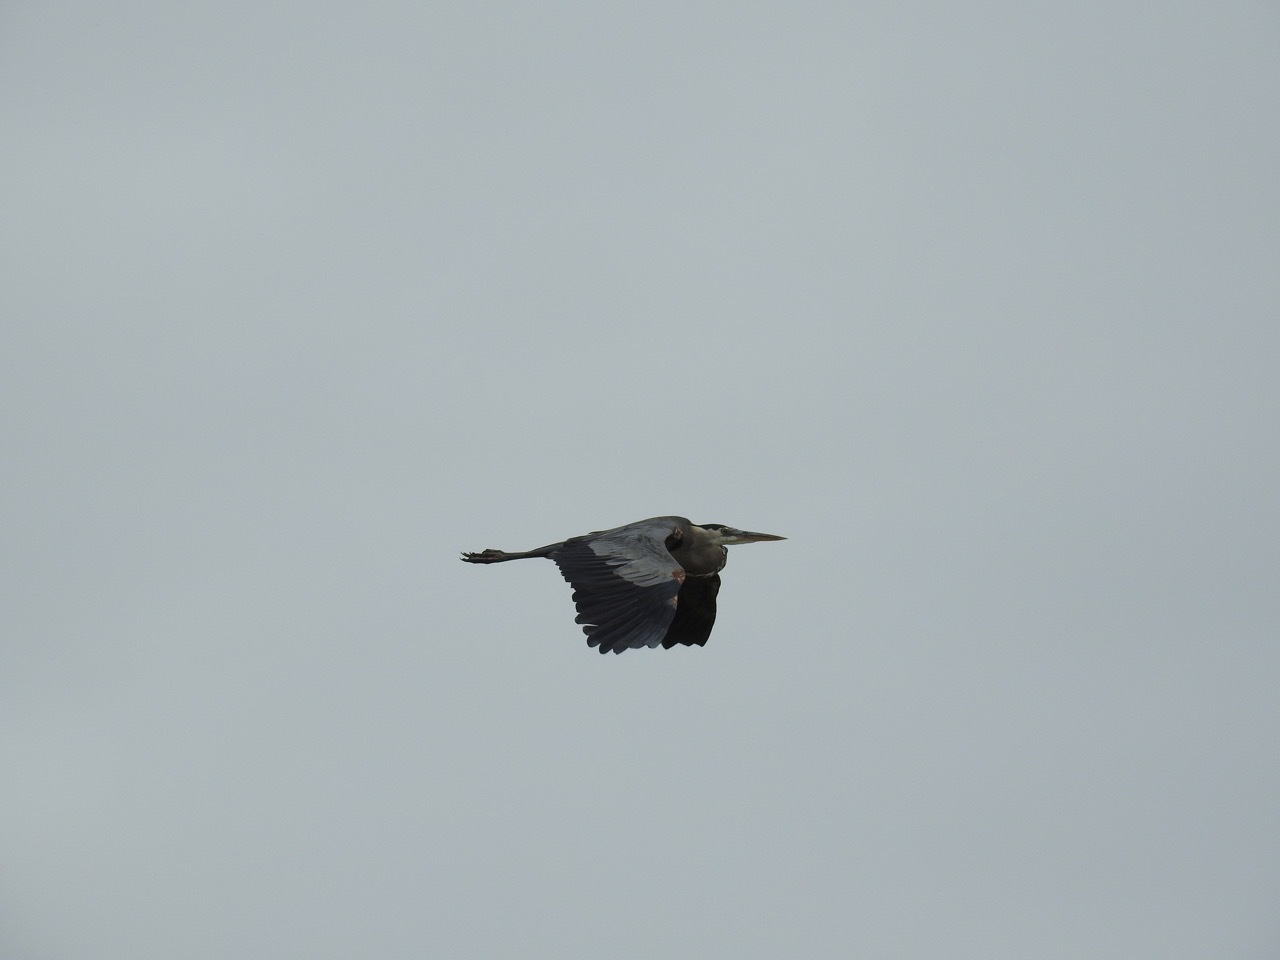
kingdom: Animalia
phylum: Chordata
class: Aves
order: Pelecaniformes
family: Ardeidae
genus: Ardea
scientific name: Ardea herodias
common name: Great blue heron
